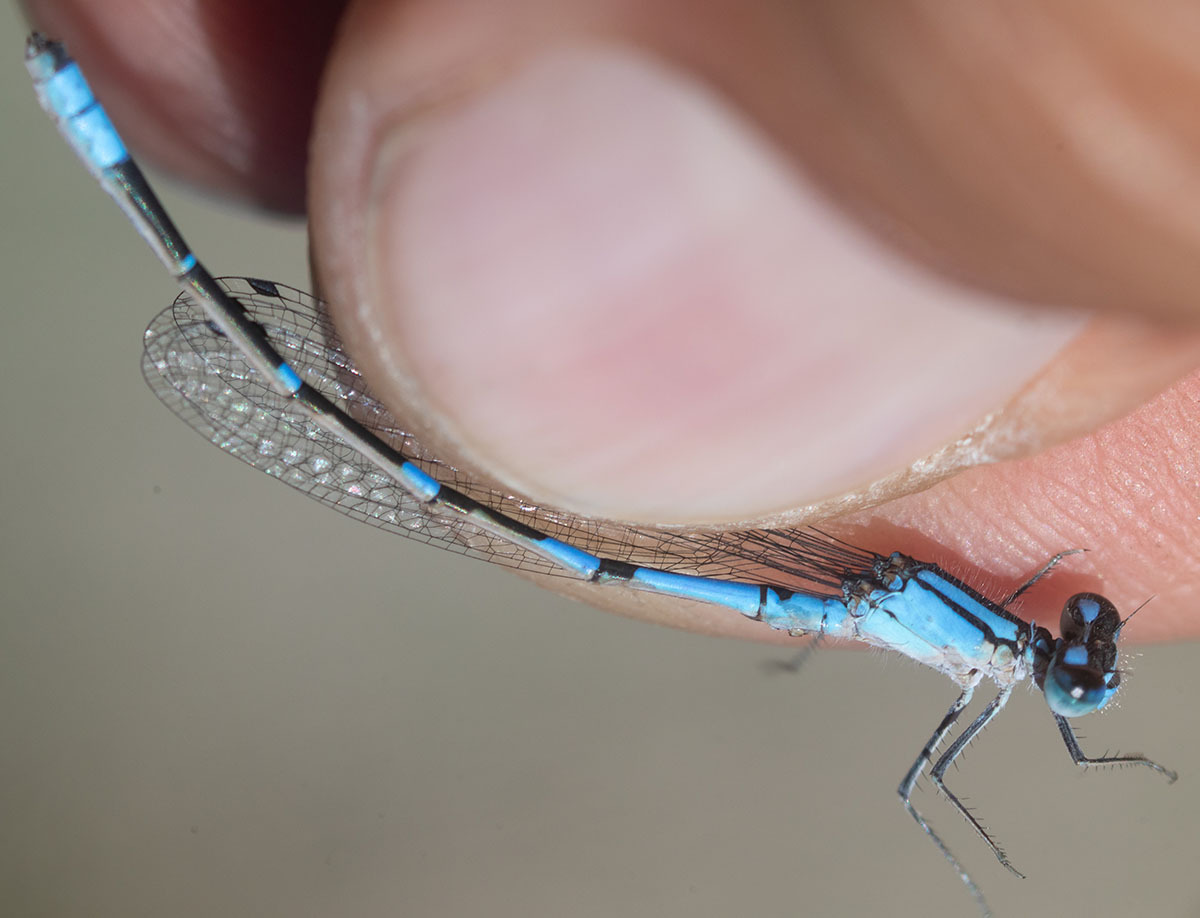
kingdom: Animalia
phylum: Arthropoda
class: Insecta
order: Odonata
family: Coenagrionidae
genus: Enallagma
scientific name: Enallagma praevarum
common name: Arroyo bluet
